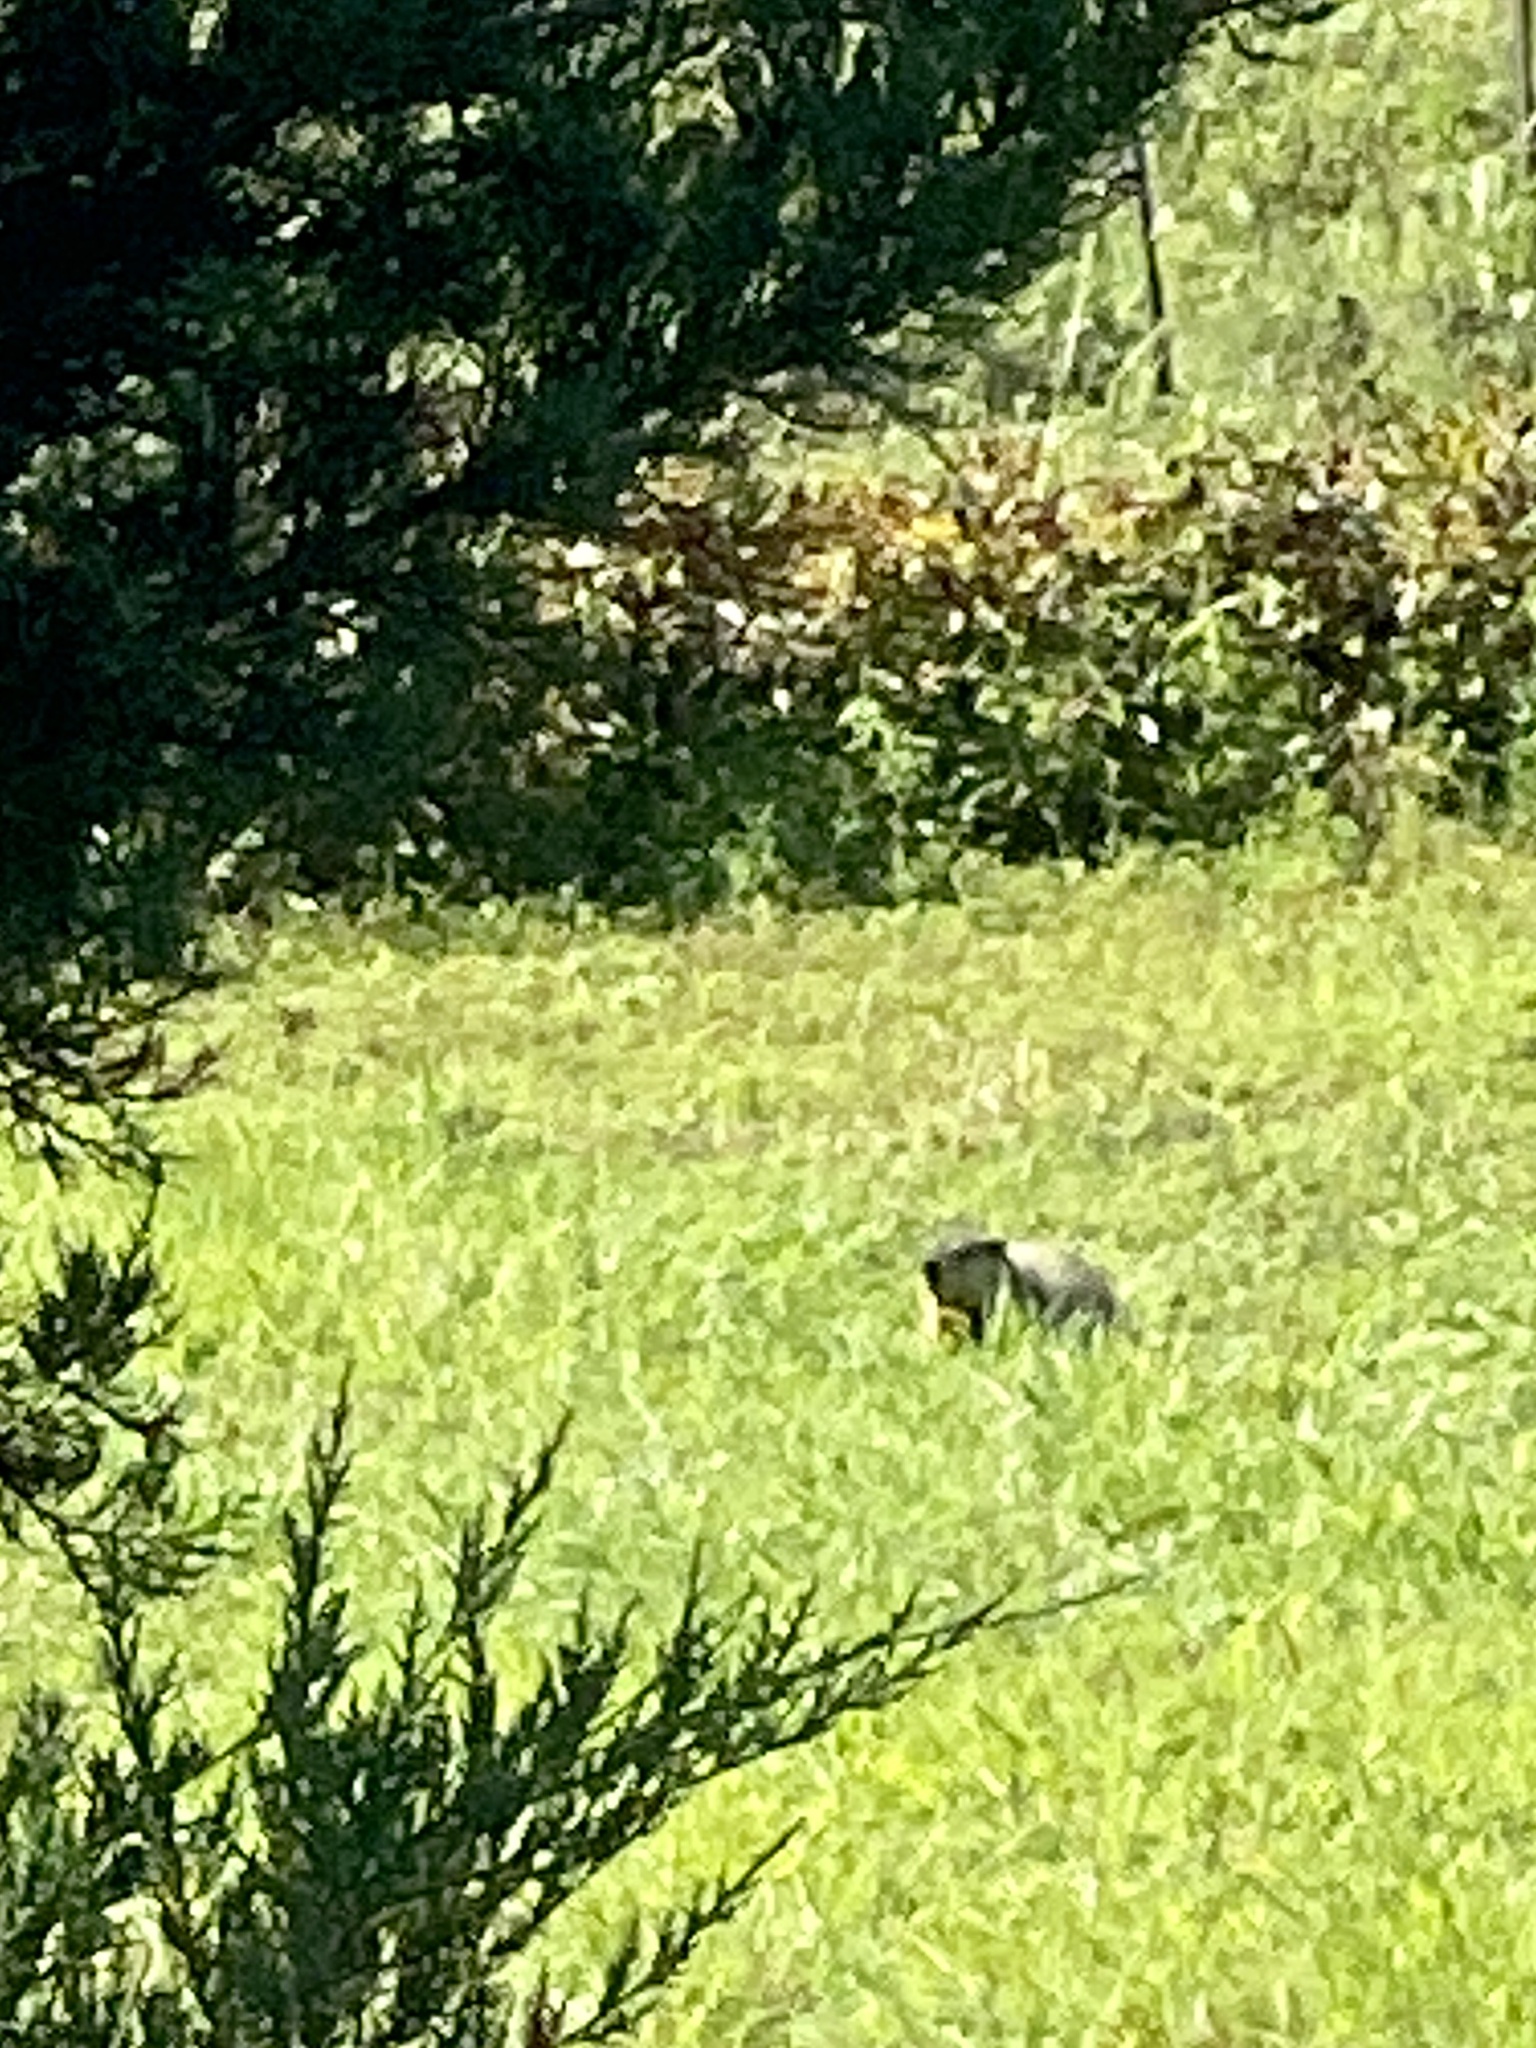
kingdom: Animalia
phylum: Chordata
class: Mammalia
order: Rodentia
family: Sciuridae
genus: Marmota
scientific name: Marmota monax
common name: Groundhog
